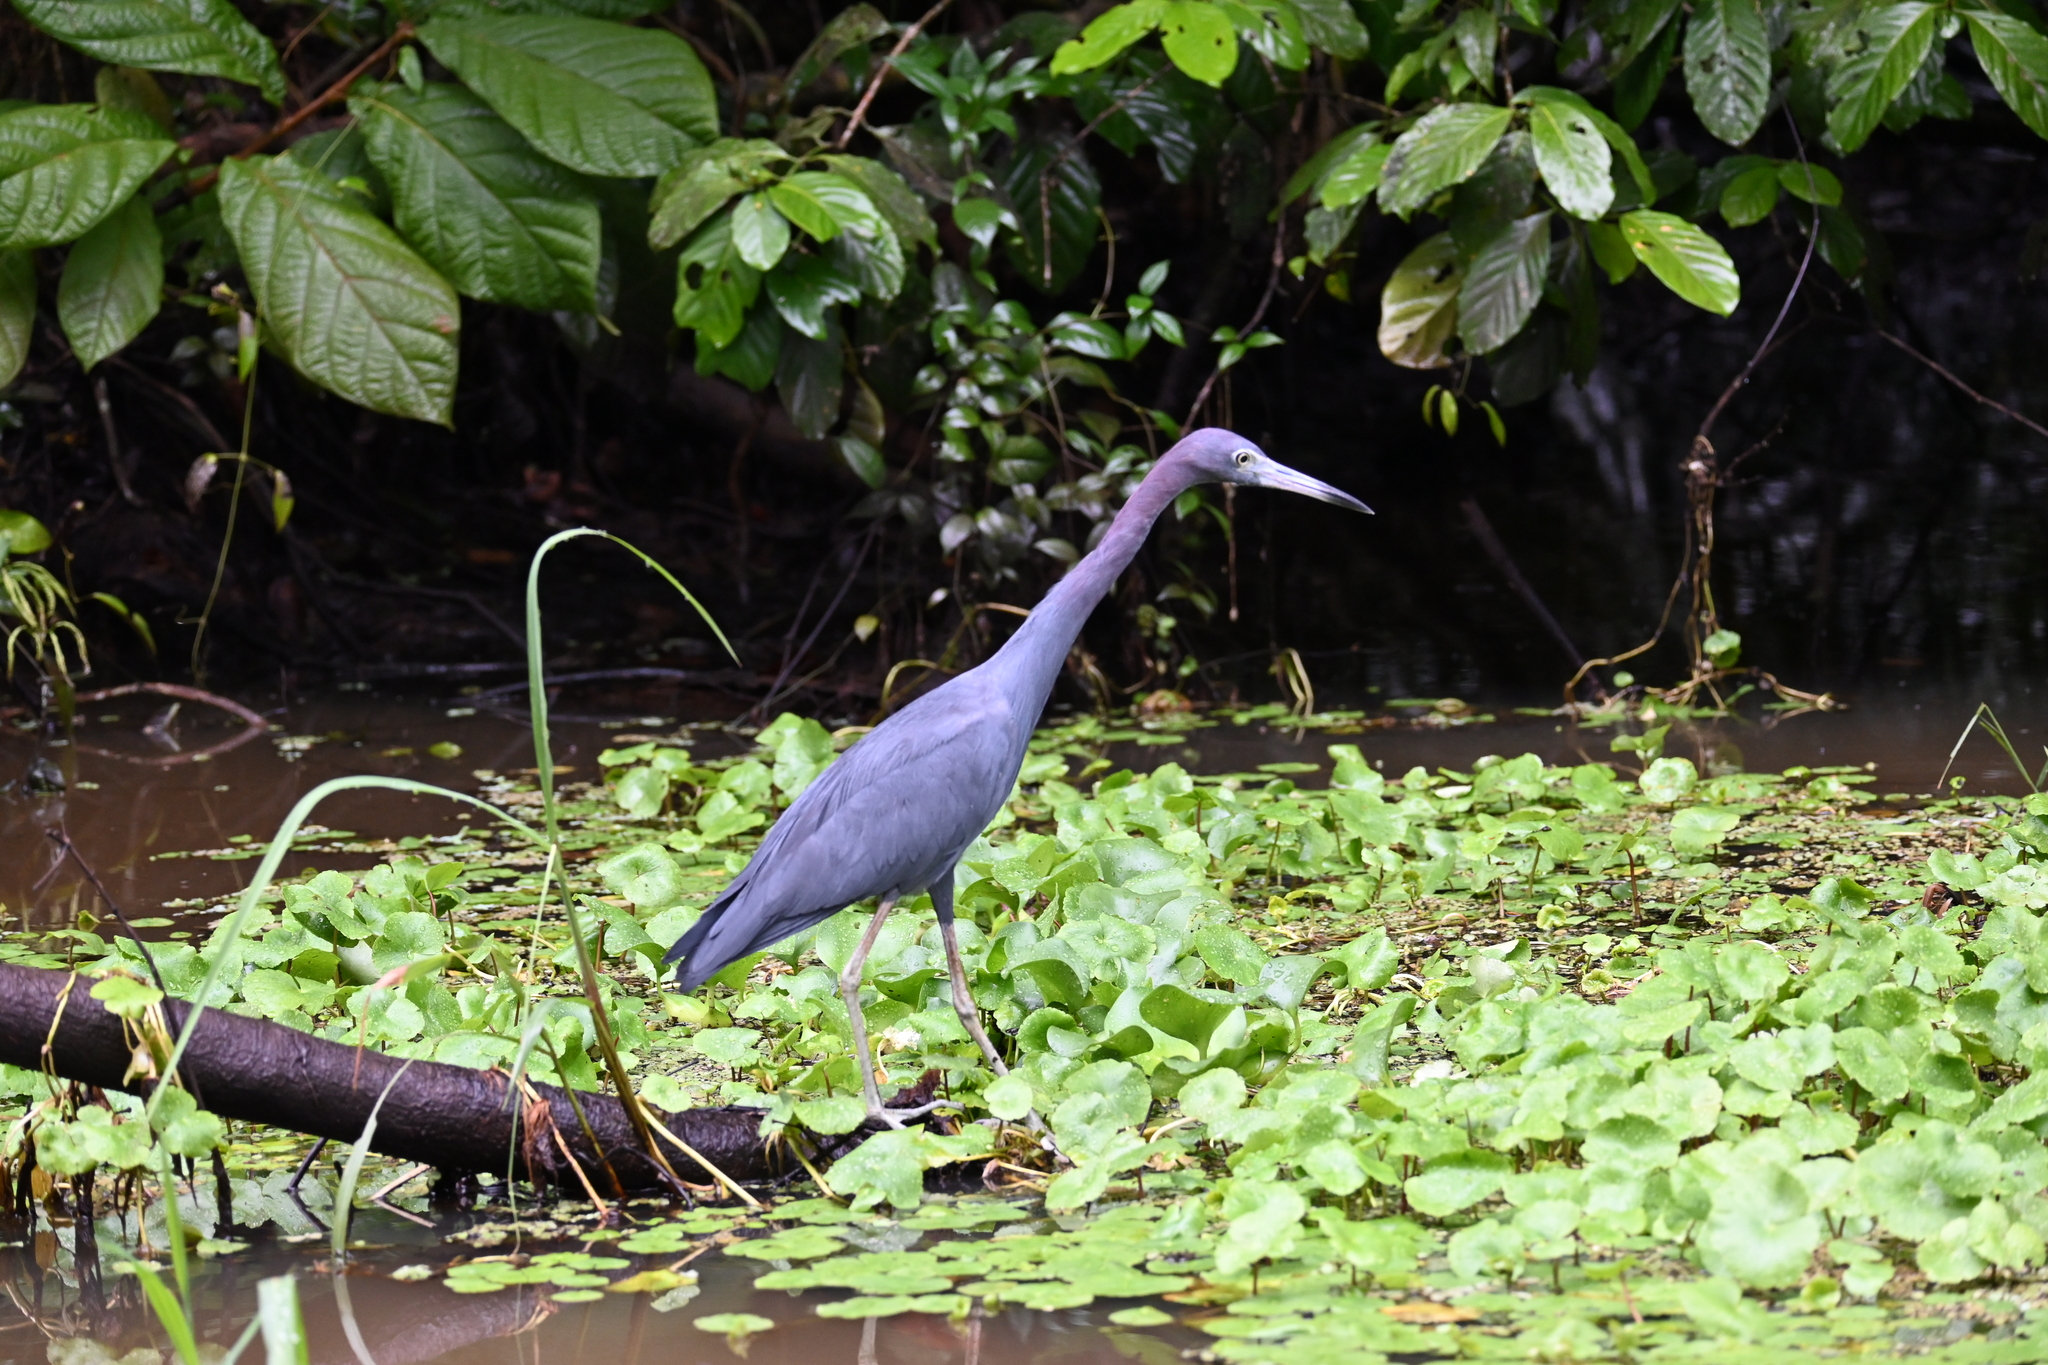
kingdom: Animalia
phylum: Chordata
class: Aves
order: Pelecaniformes
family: Ardeidae
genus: Egretta
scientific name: Egretta caerulea
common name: Little blue heron
